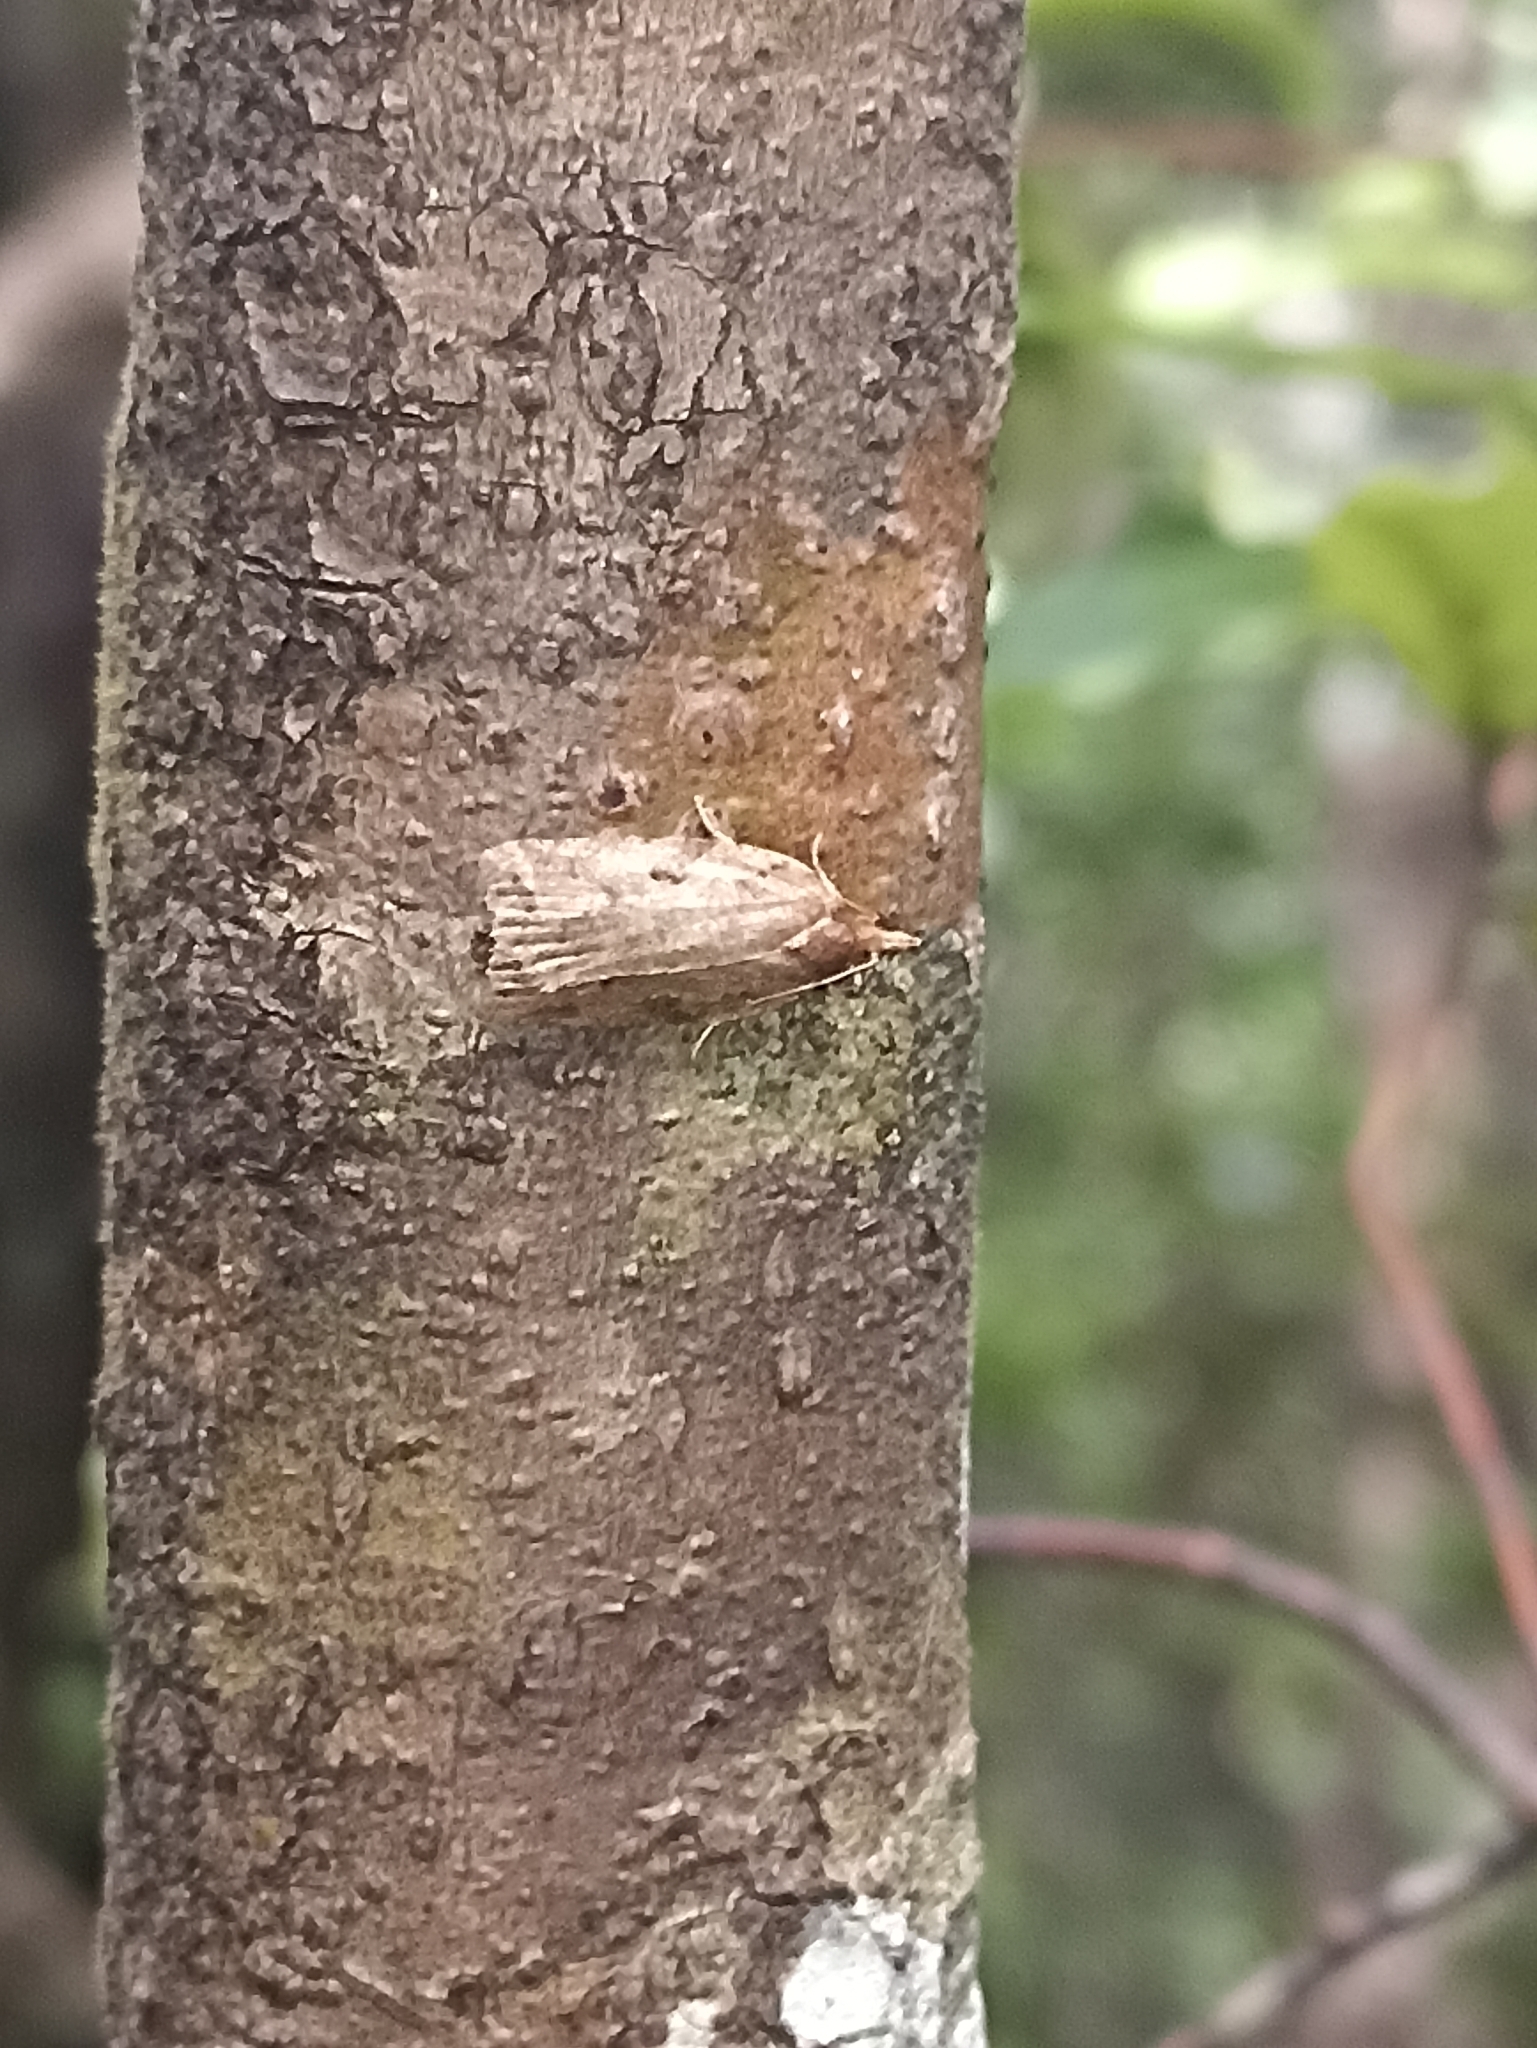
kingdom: Animalia
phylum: Arthropoda
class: Insecta
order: Lepidoptera
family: Tortricidae
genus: Ctenopseustis
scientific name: Ctenopseustis
